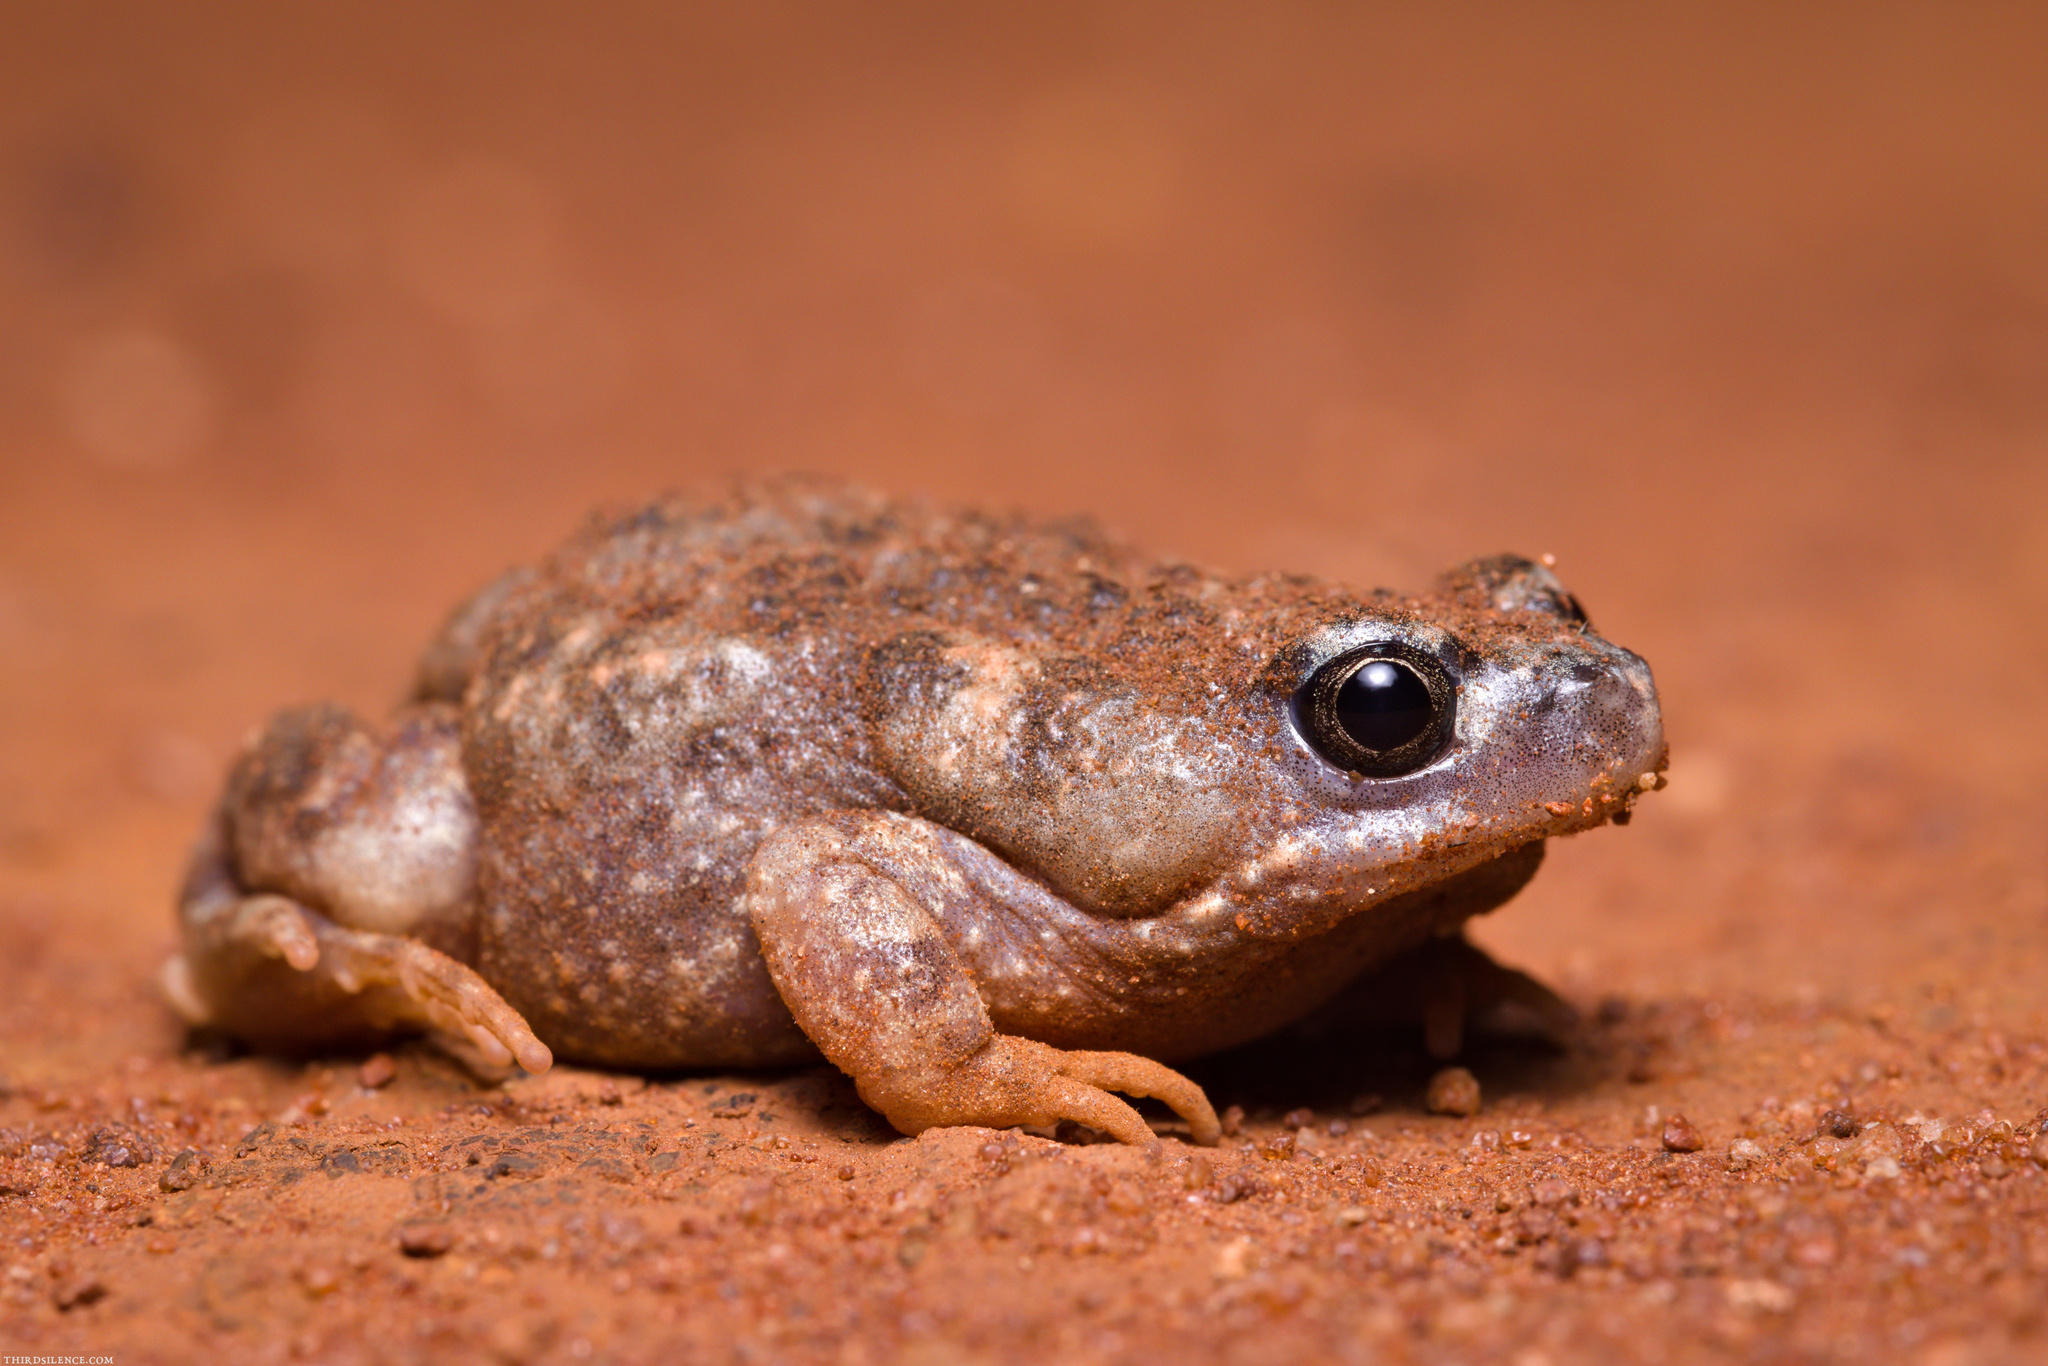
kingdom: Animalia
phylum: Chordata
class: Amphibia
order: Anura
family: Myobatrachidae
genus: Uperoleia
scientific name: Uperoleia rugosa
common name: Wrinkled toadlet
